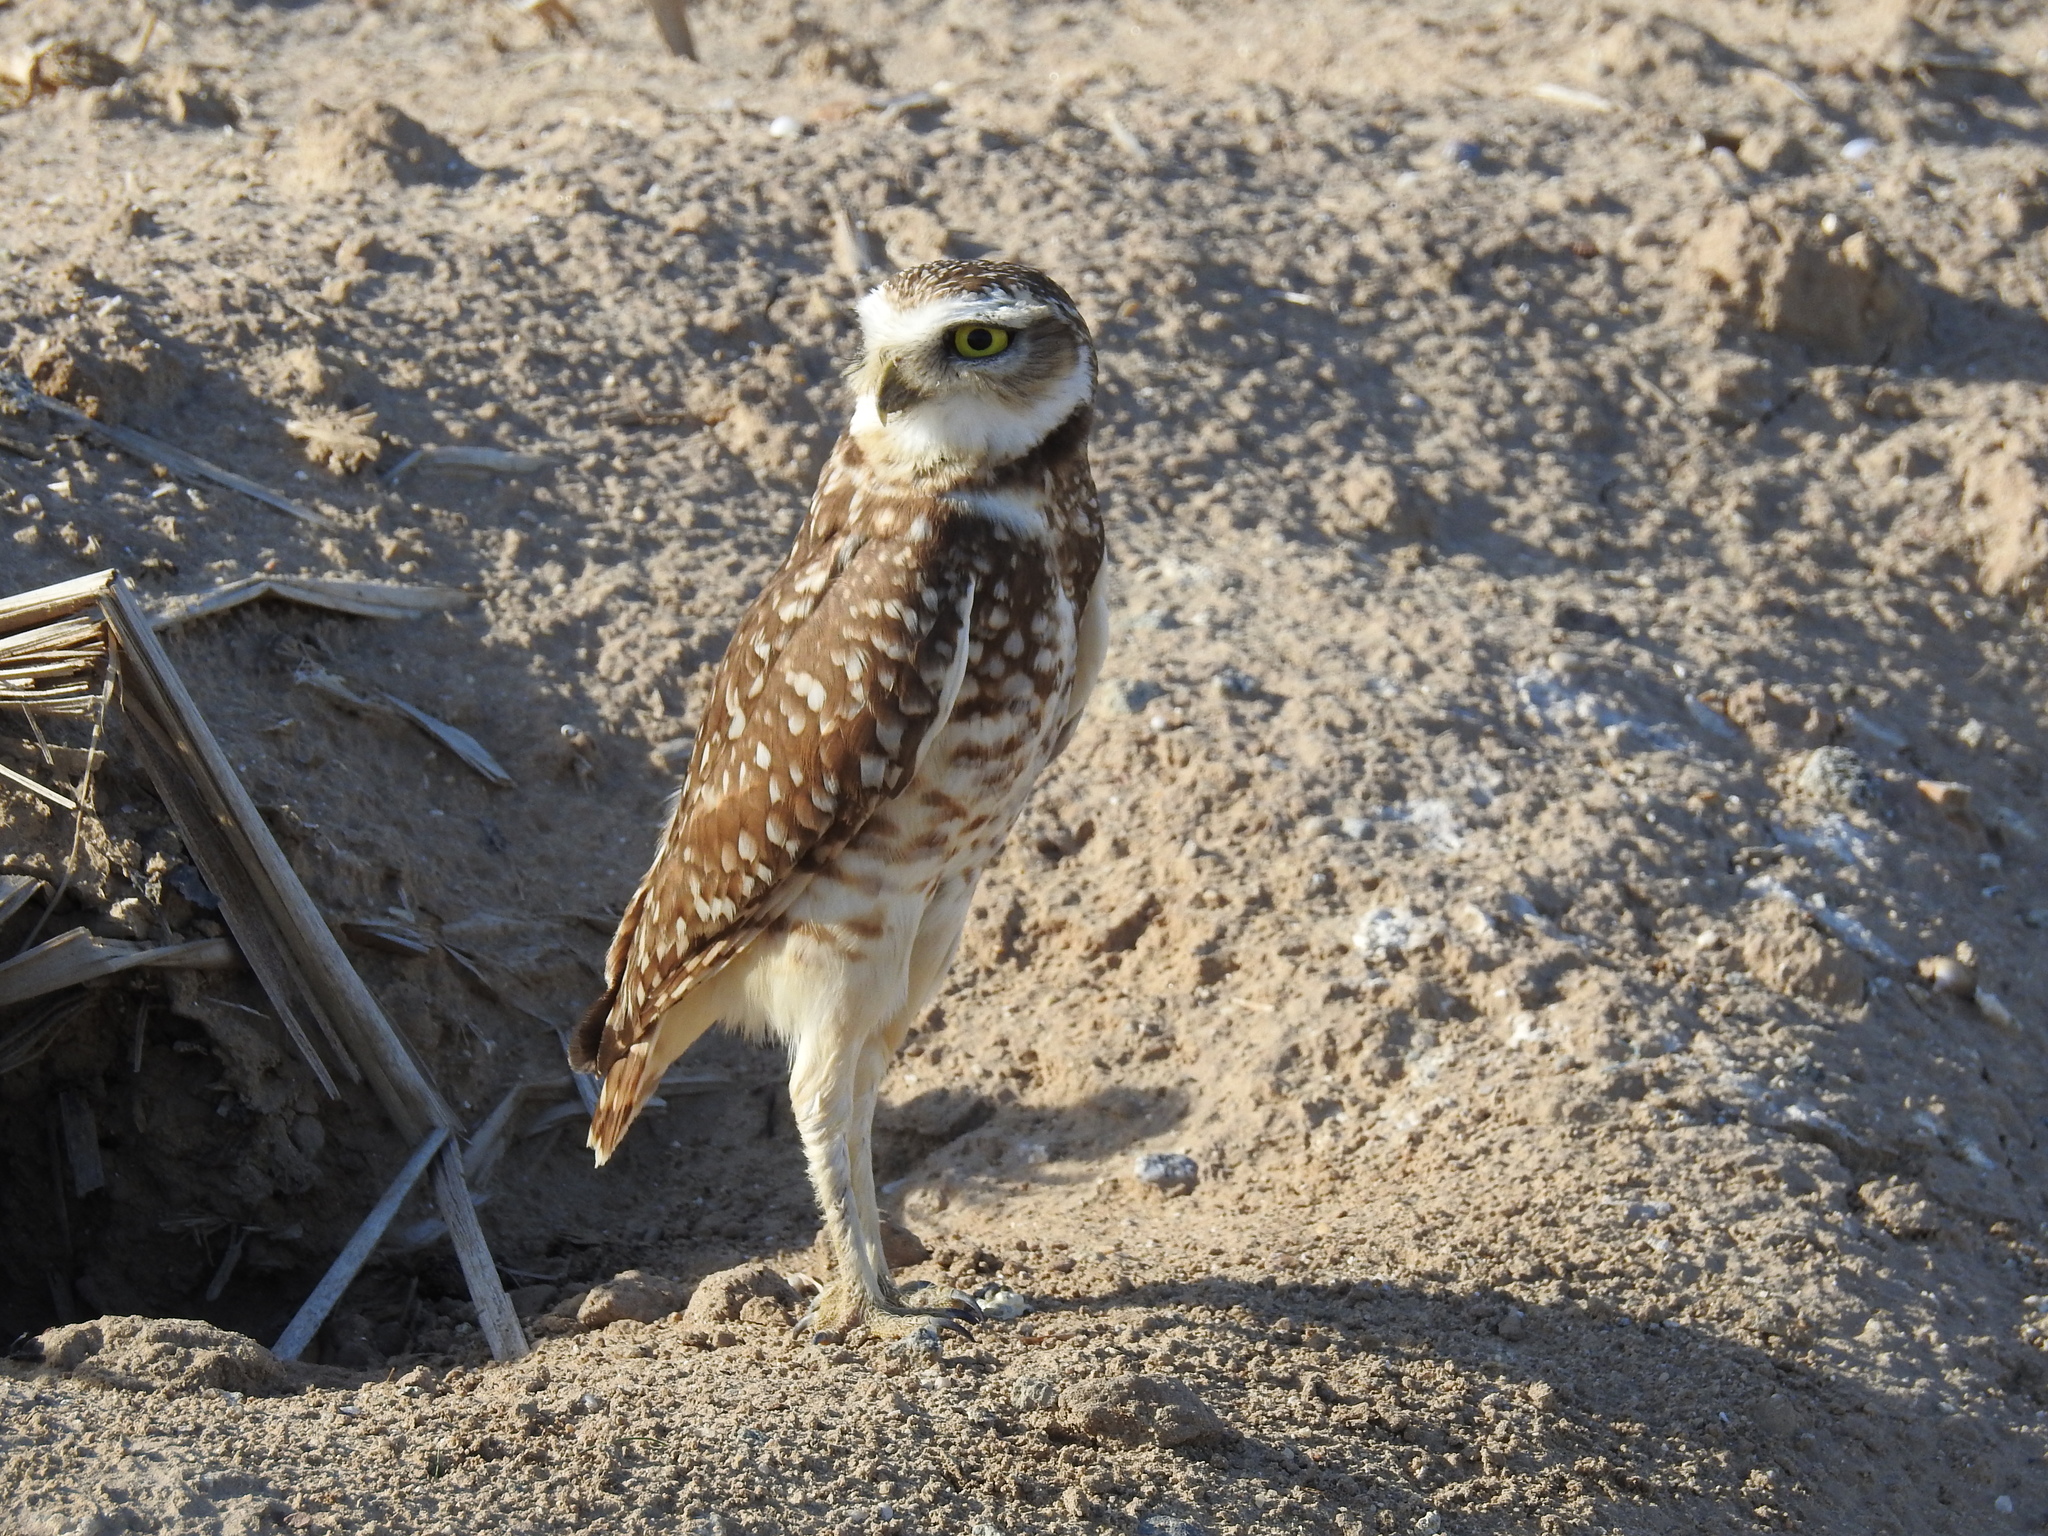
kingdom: Animalia
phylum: Chordata
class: Aves
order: Strigiformes
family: Strigidae
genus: Athene
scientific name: Athene cunicularia
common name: Burrowing owl
